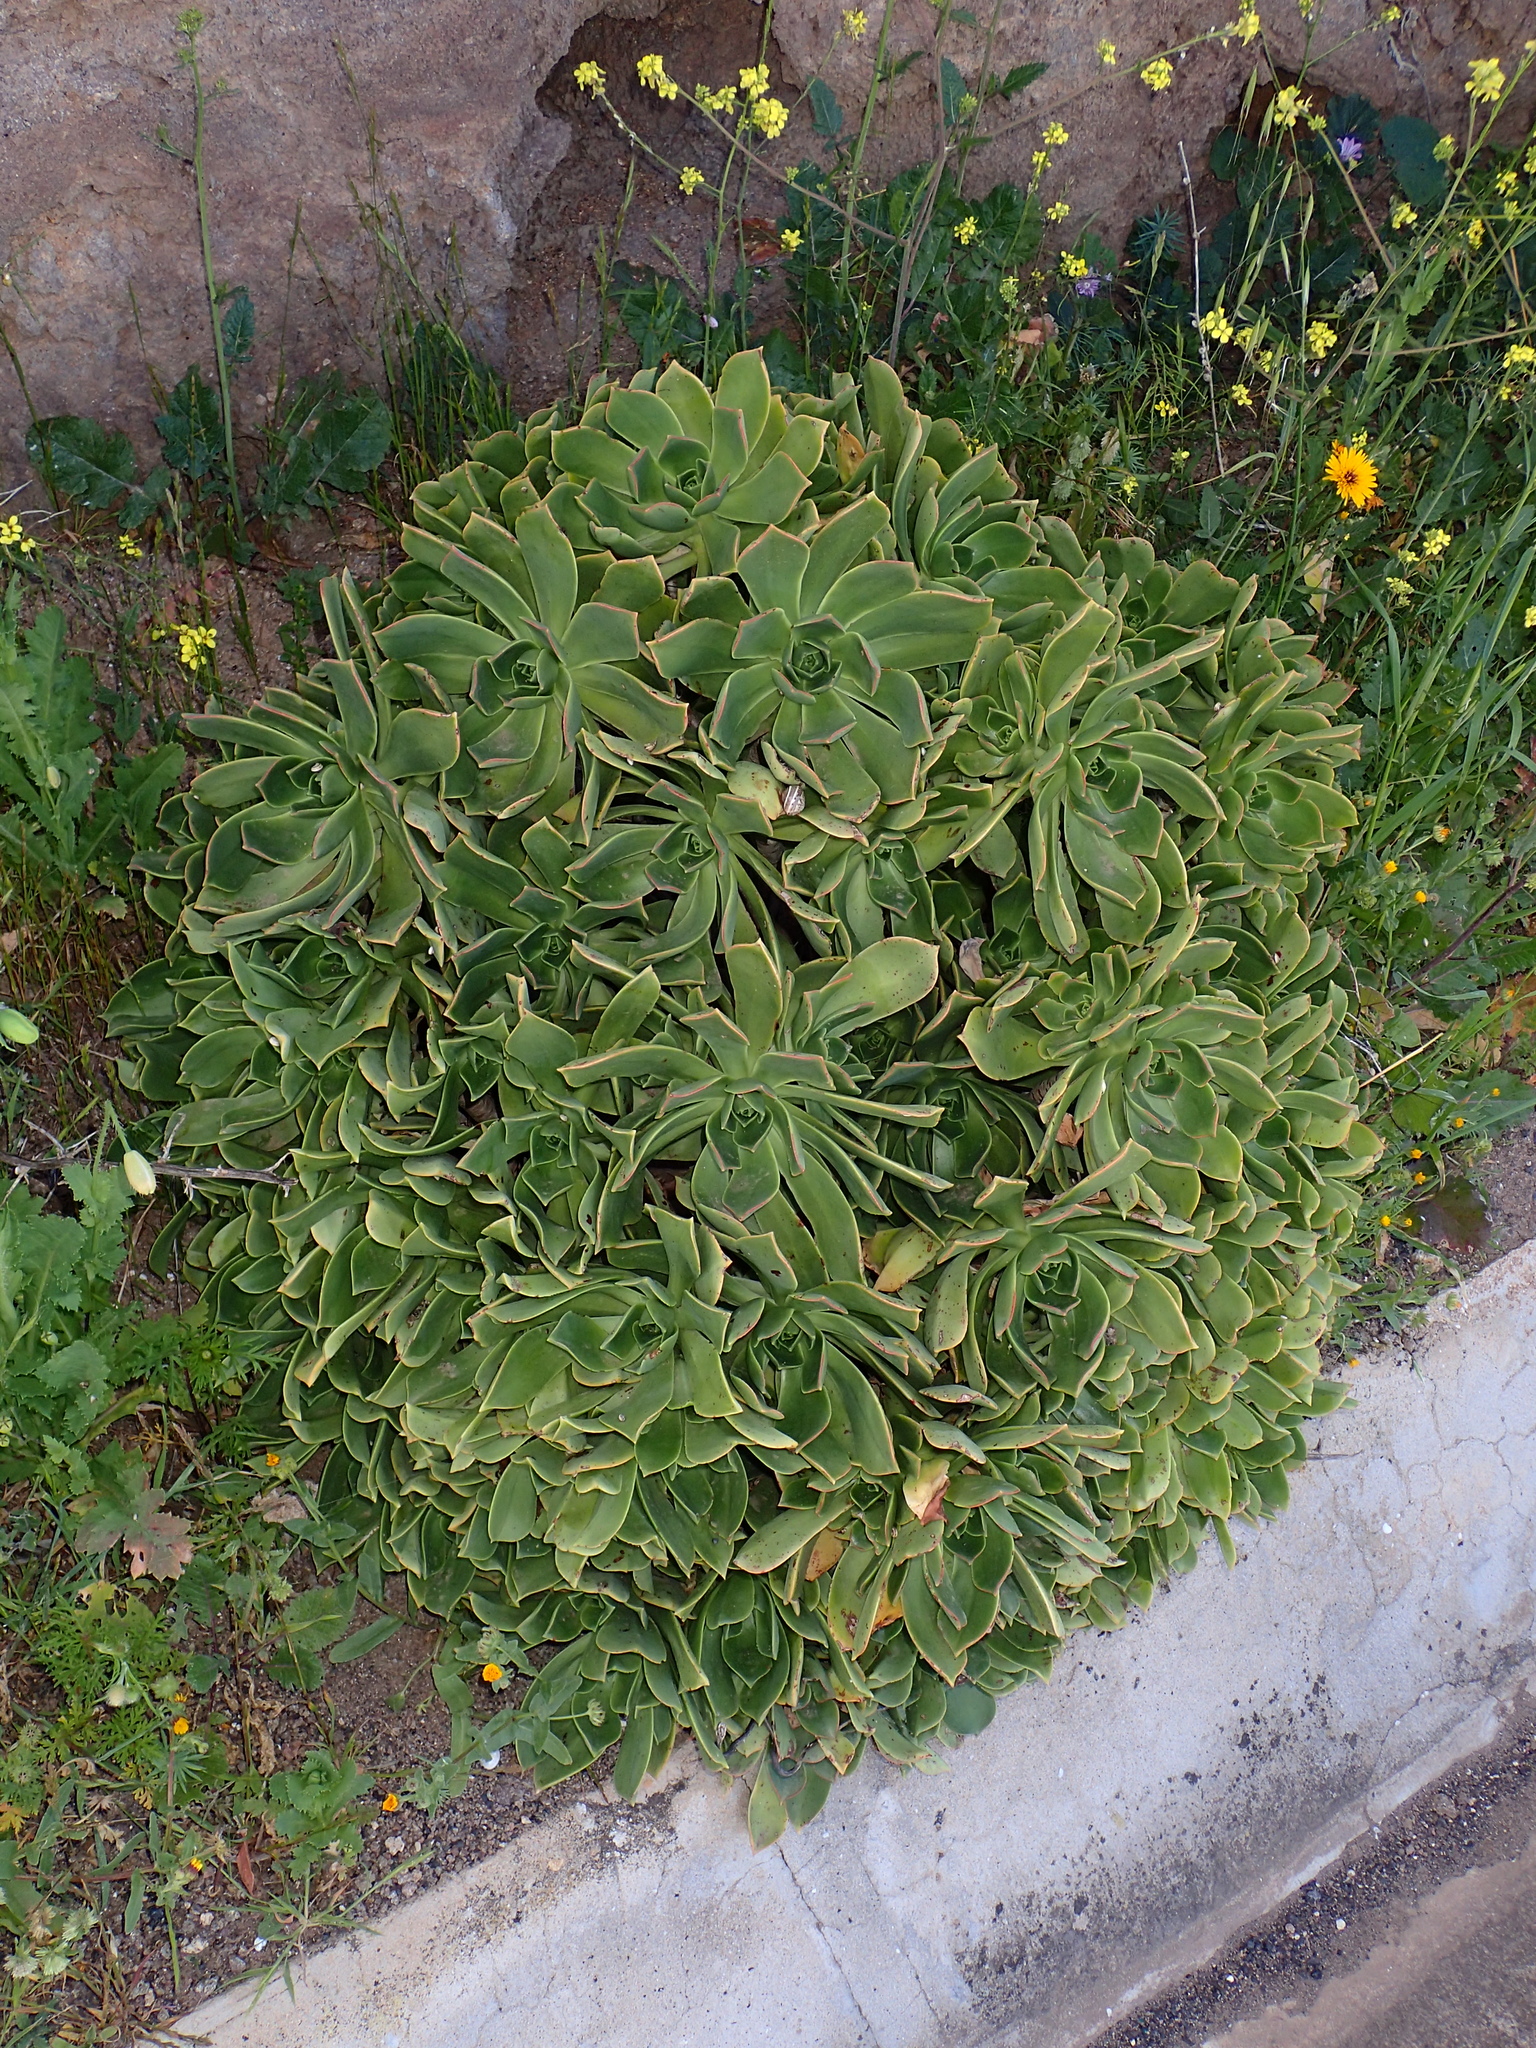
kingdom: Plantae
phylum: Tracheophyta
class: Magnoliopsida
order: Saxifragales
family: Crassulaceae
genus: Aeonium
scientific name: Aeonium lancerottense
